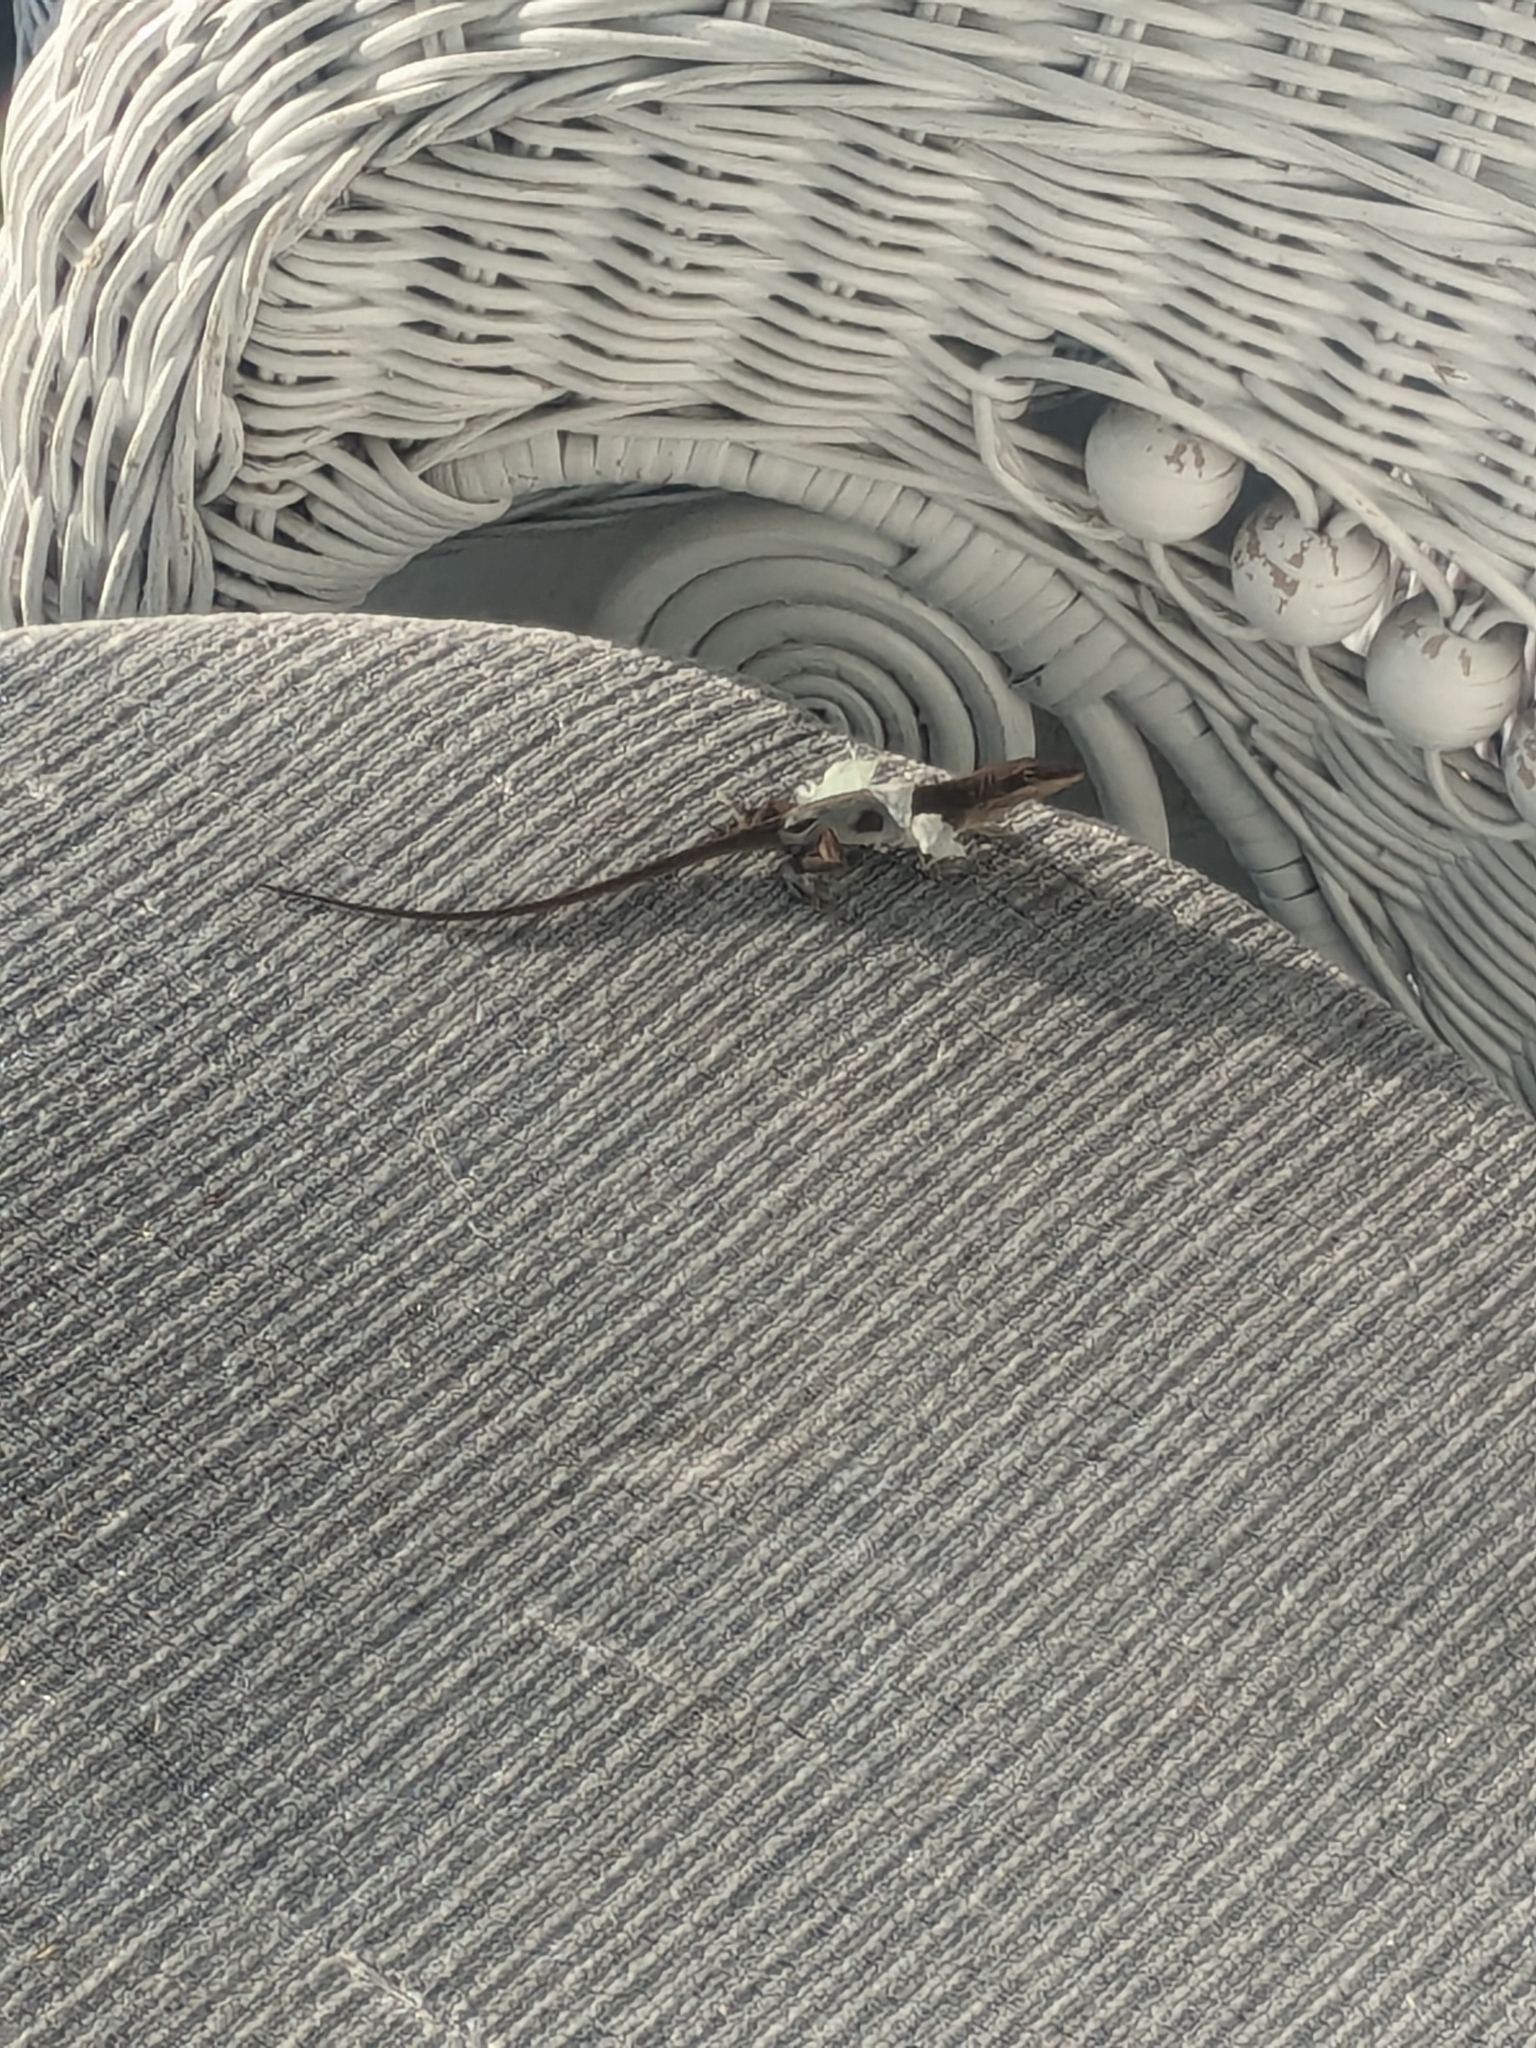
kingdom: Animalia
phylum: Chordata
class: Squamata
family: Dactyloidae
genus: Anolis
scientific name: Anolis carolinensis
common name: Green anole
